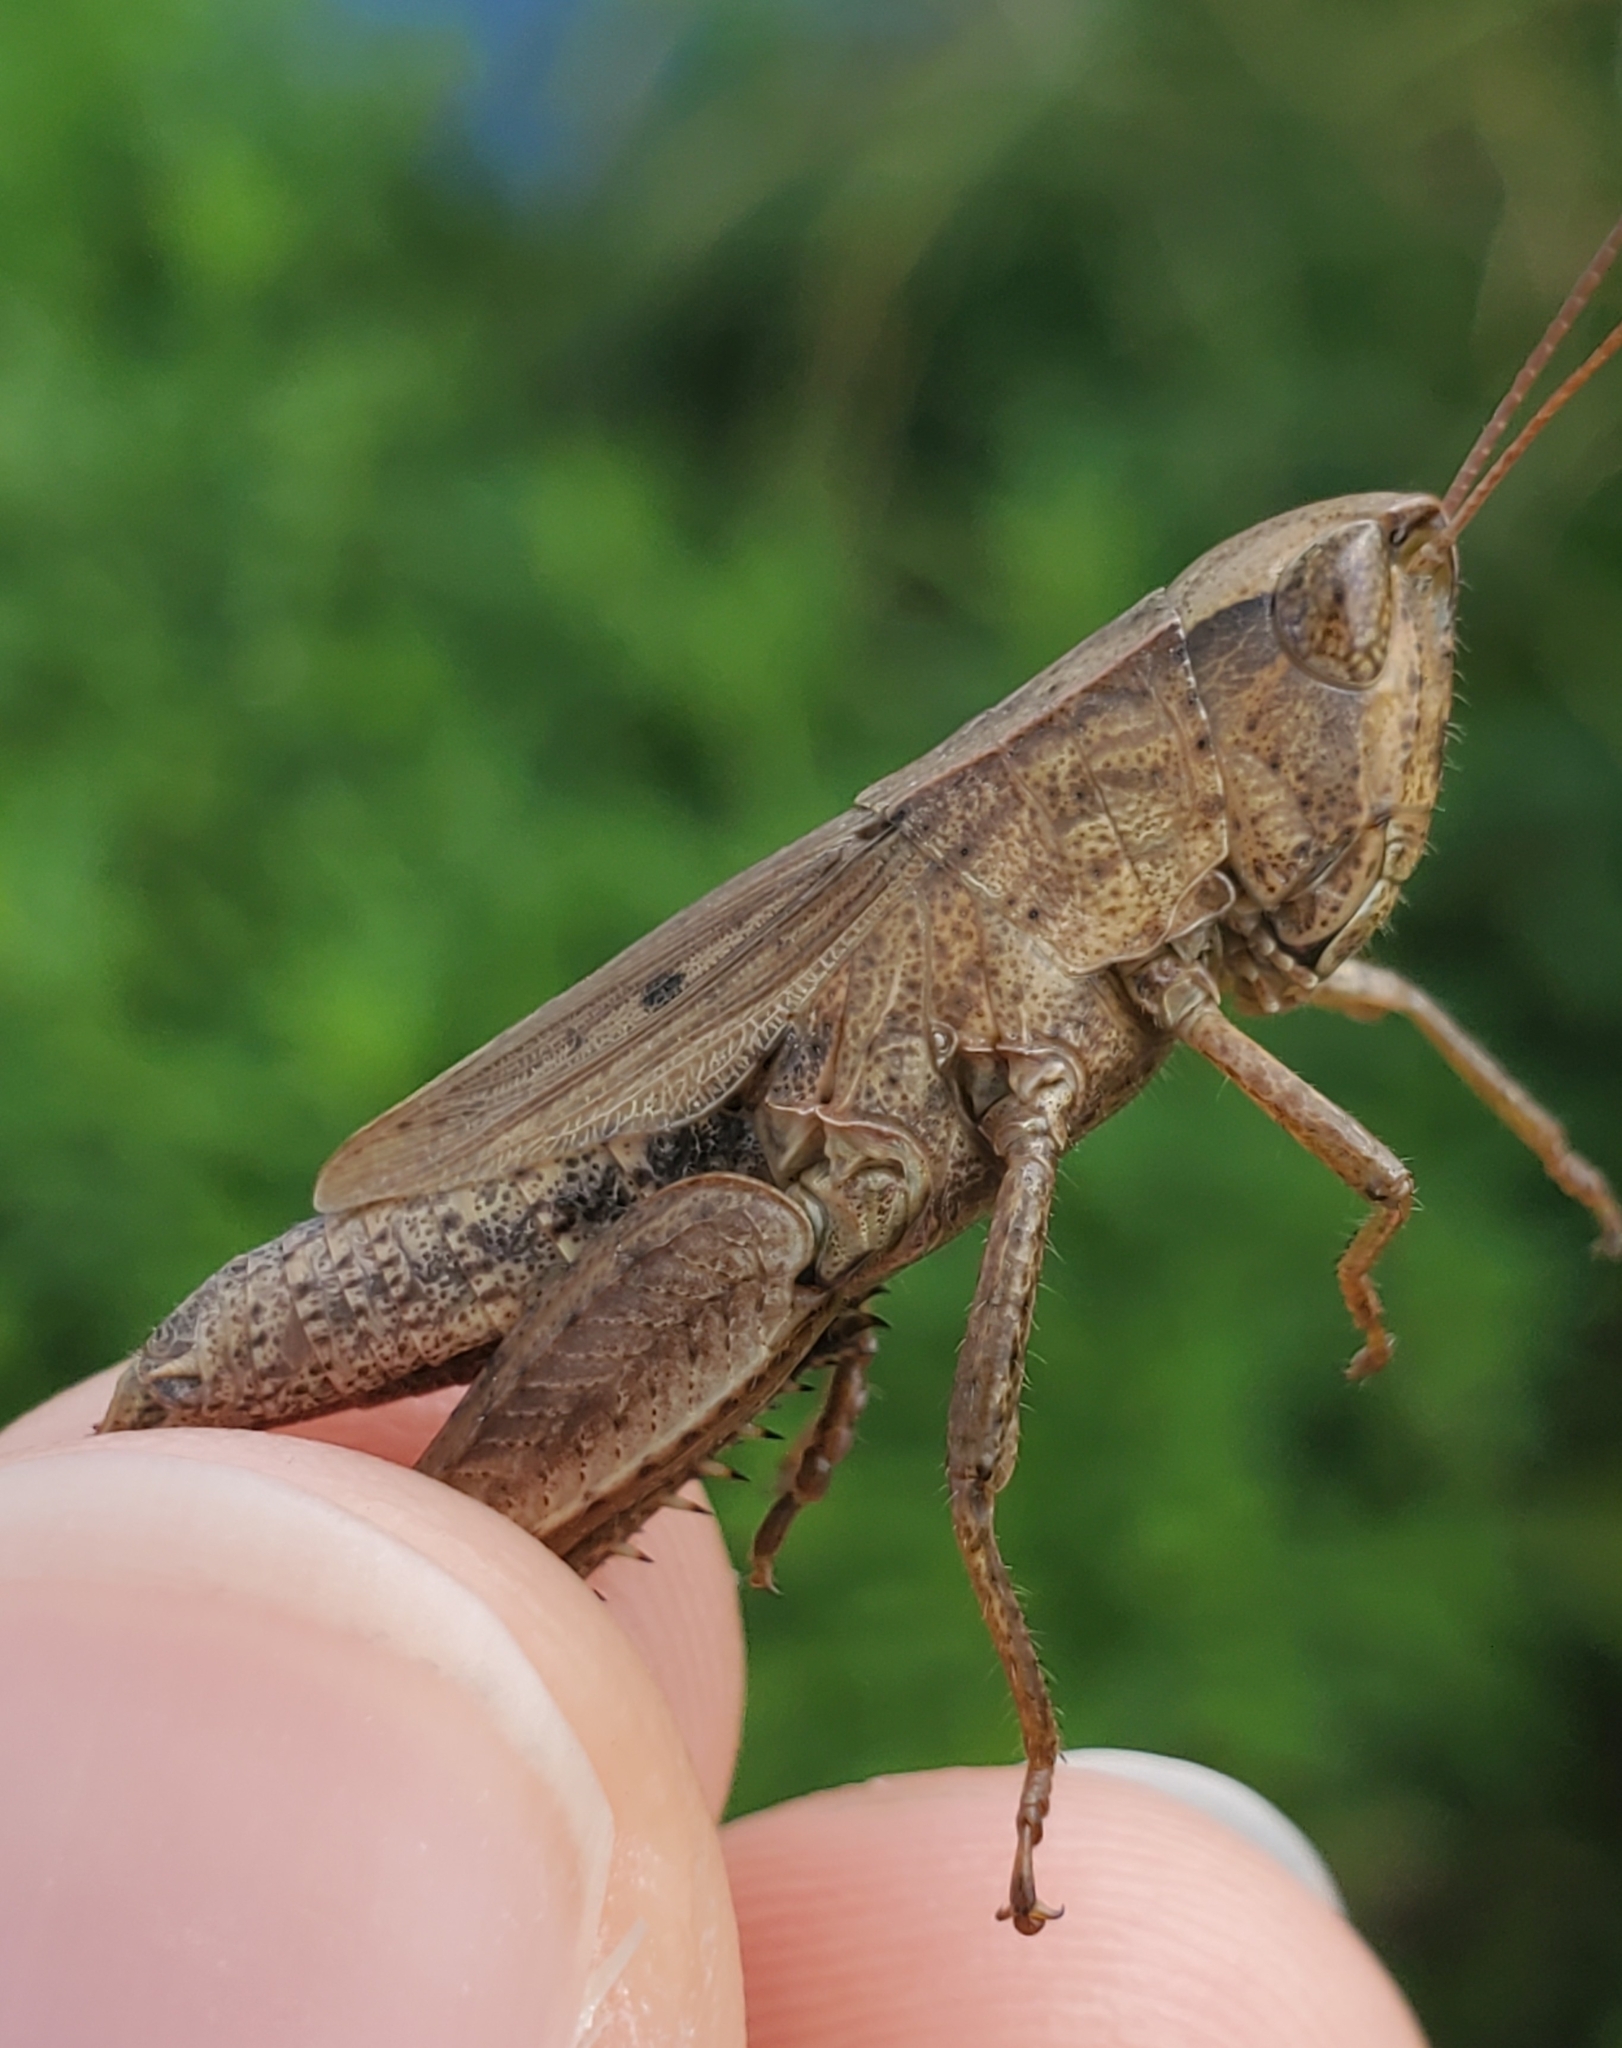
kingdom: Animalia
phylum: Arthropoda
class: Insecta
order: Orthoptera
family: Acrididae
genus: Dichromorpha
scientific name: Dichromorpha viridis
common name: Short-winged green grasshopper
